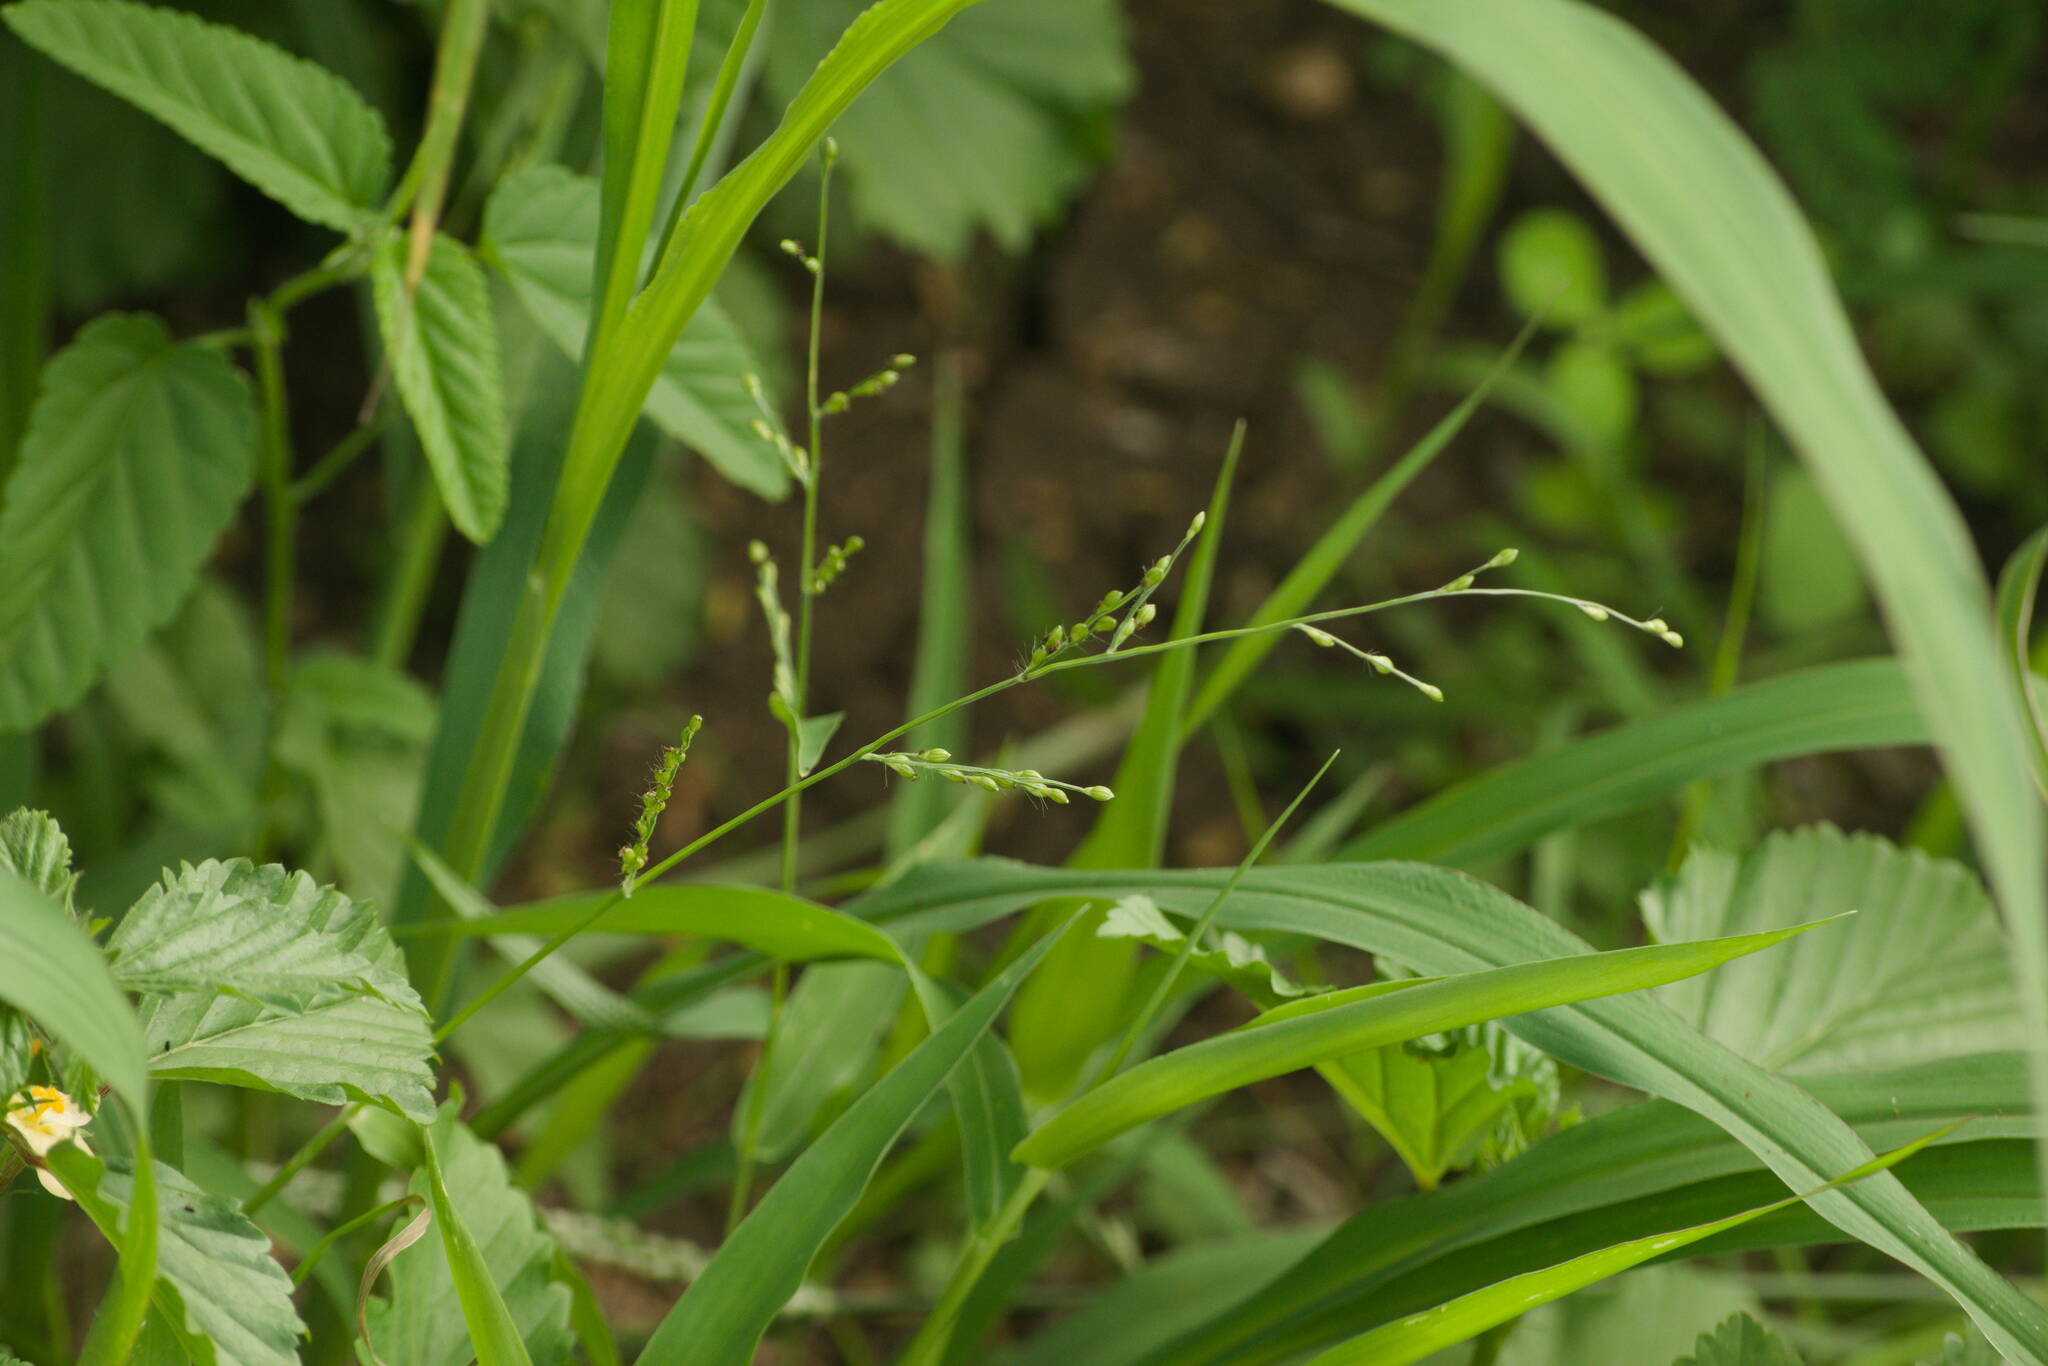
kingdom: Plantae
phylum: Tracheophyta
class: Liliopsida
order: Poales
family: Poaceae
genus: Urochloa
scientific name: Urochloa ramosa
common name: Browntop millet
